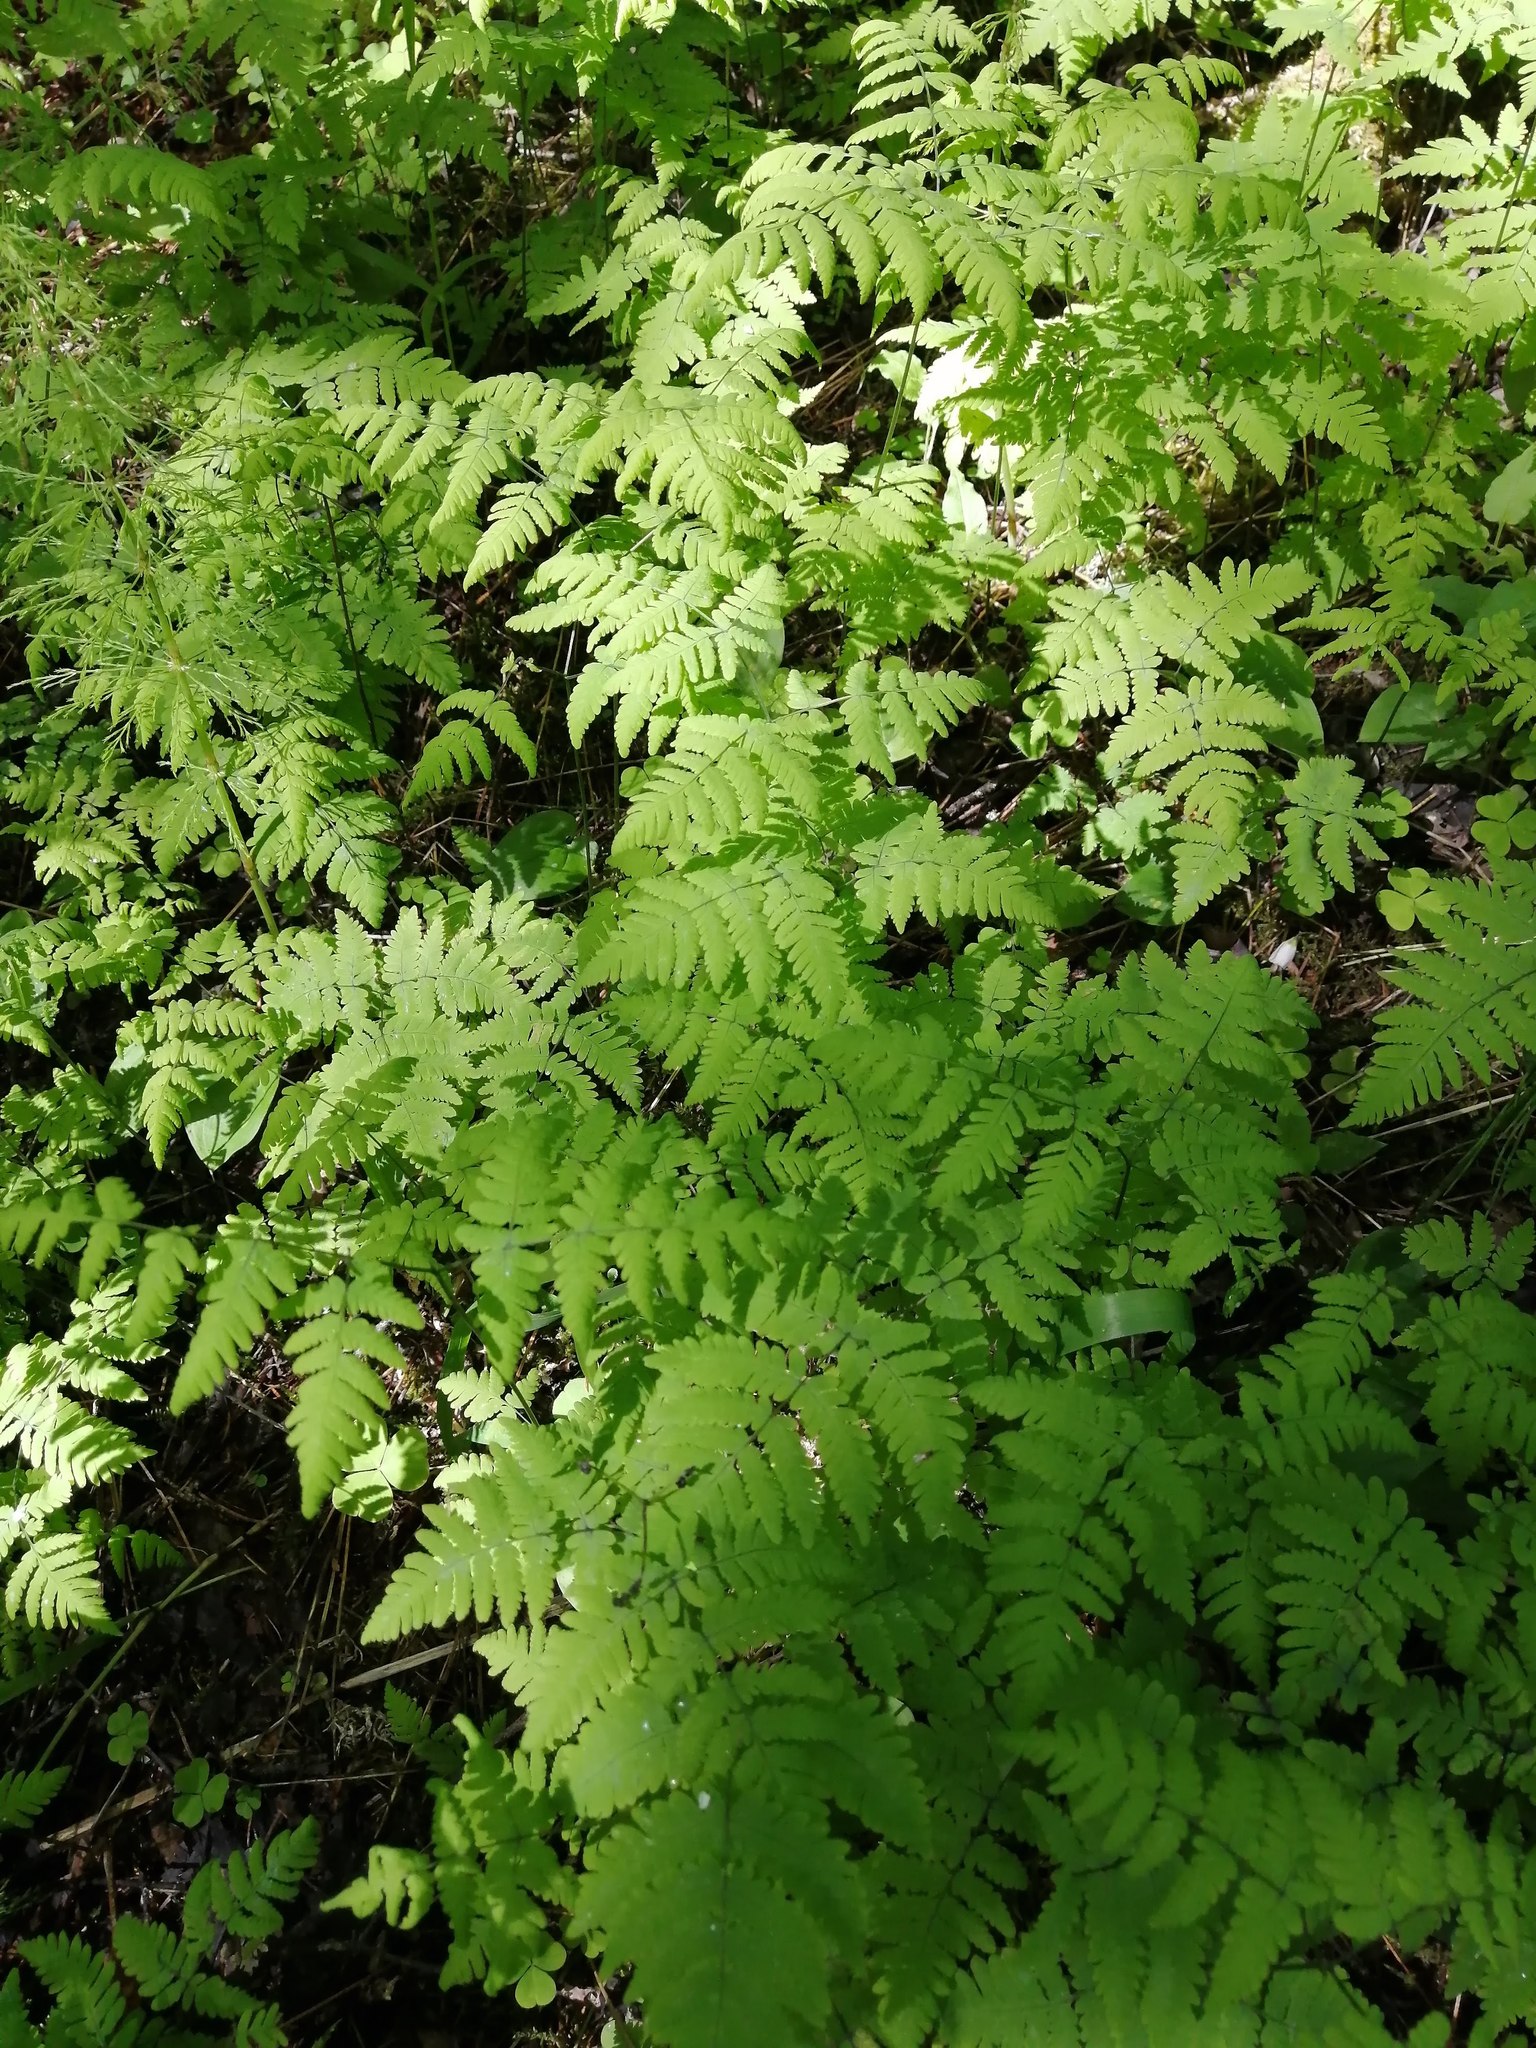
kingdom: Plantae
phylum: Tracheophyta
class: Polypodiopsida
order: Polypodiales
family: Cystopteridaceae
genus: Gymnocarpium
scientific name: Gymnocarpium dryopteris
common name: Oak fern
